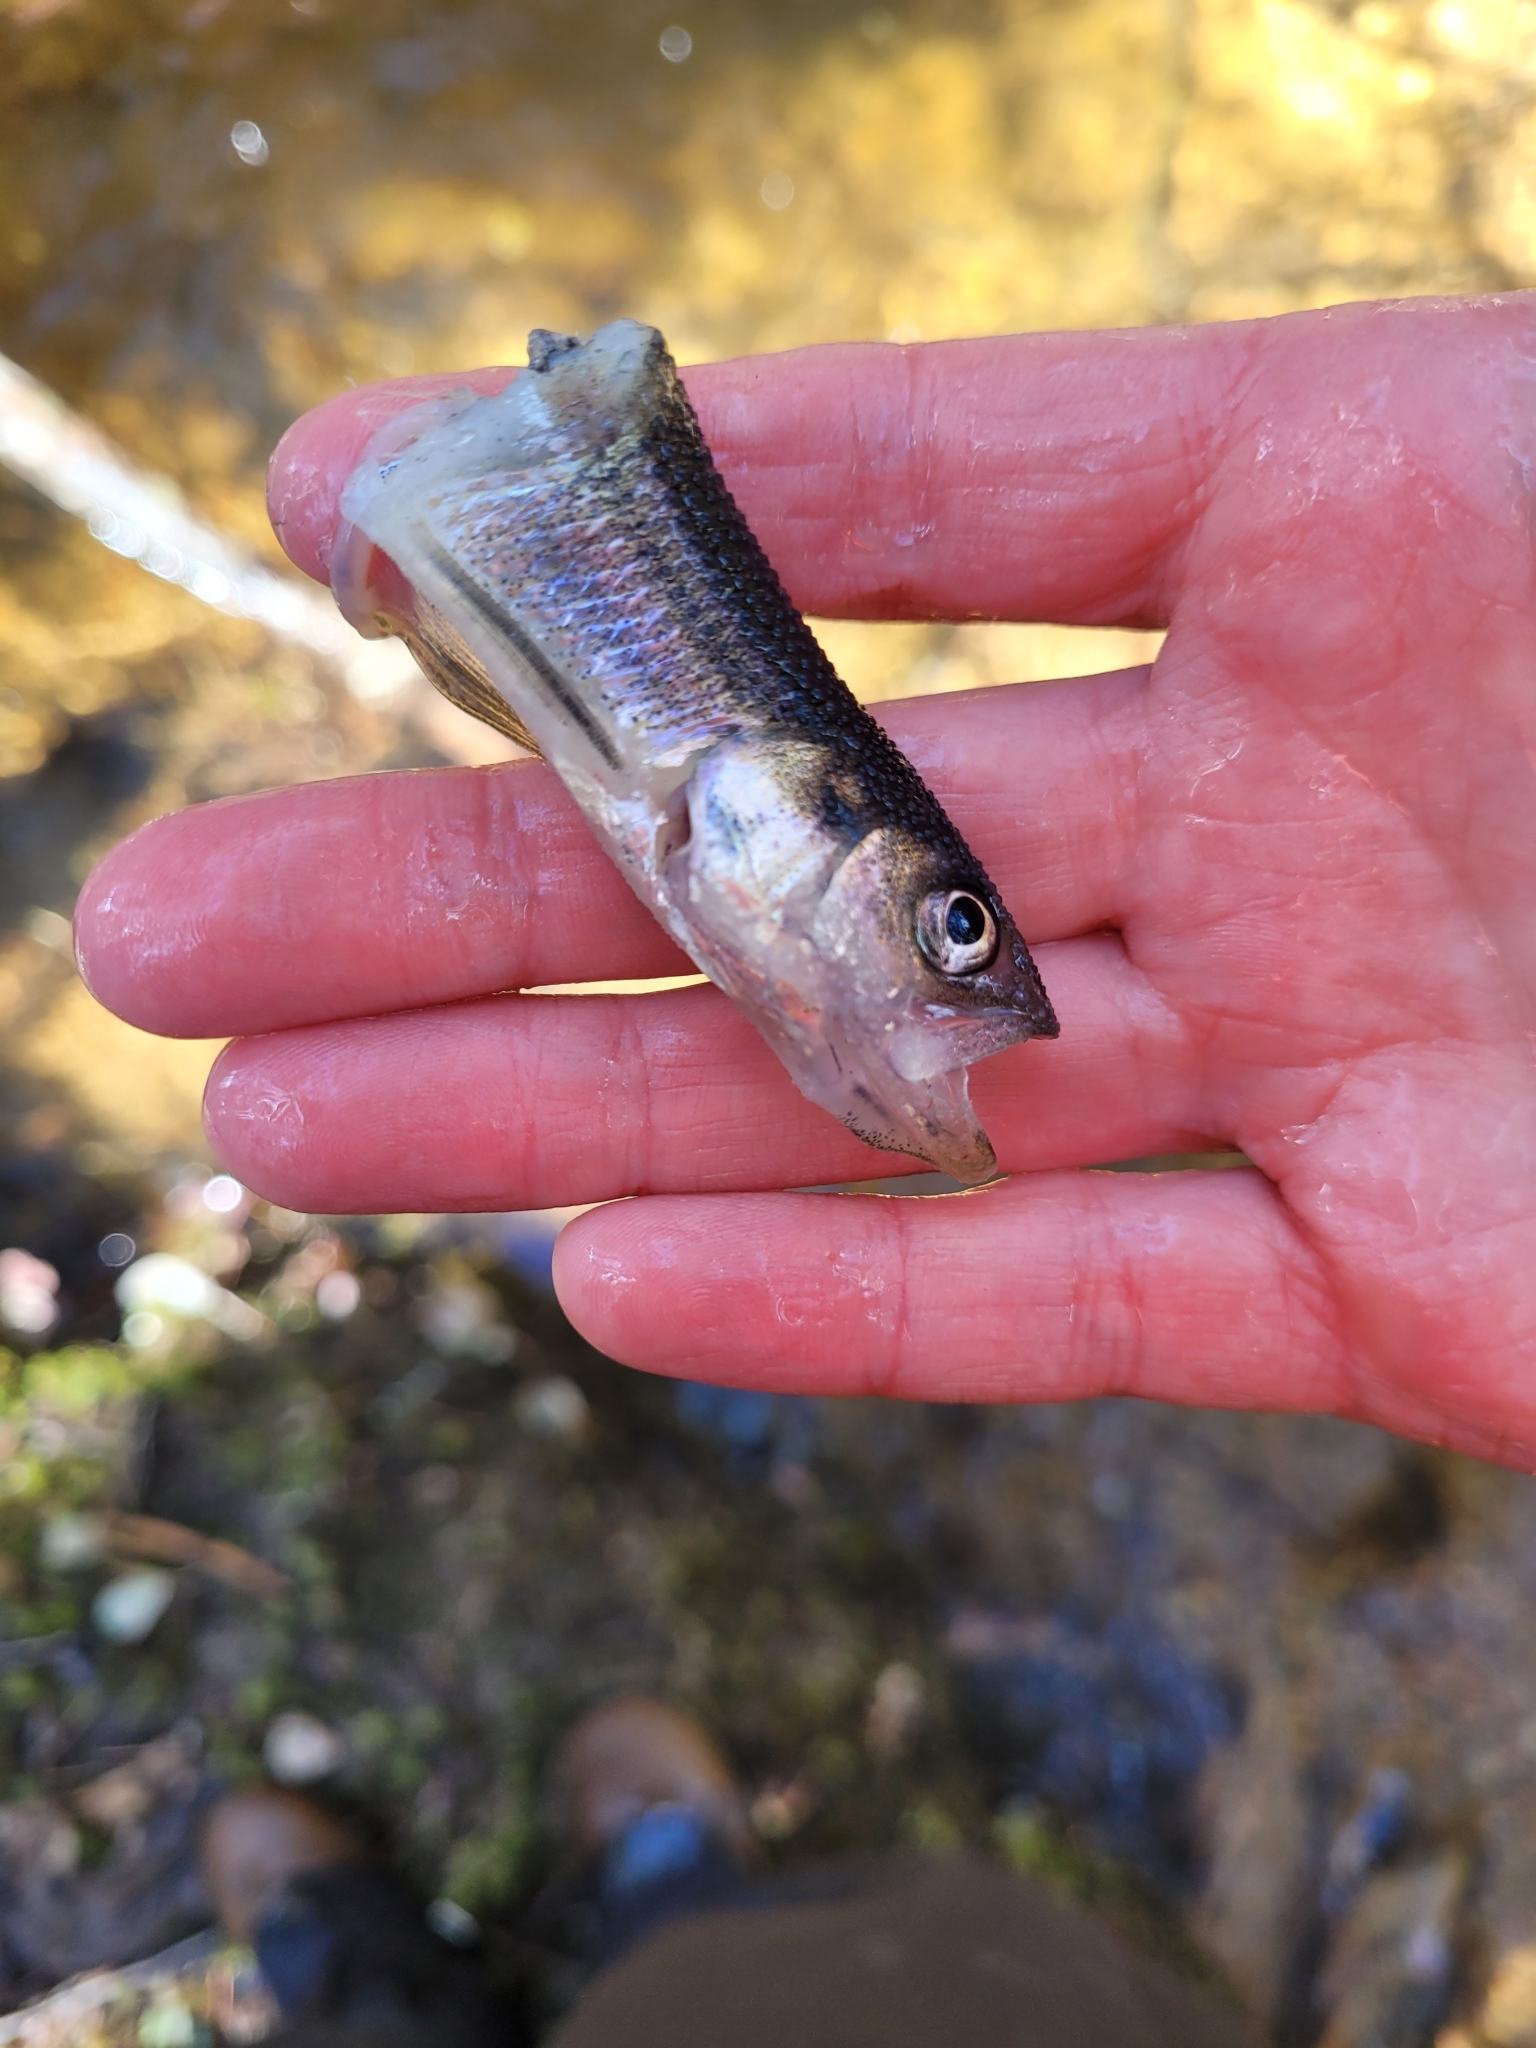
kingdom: Animalia
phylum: Chordata
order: Osmeriformes
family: Osmeridae
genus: Osmerus
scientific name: Osmerus mordax
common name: Rainbow smelt
